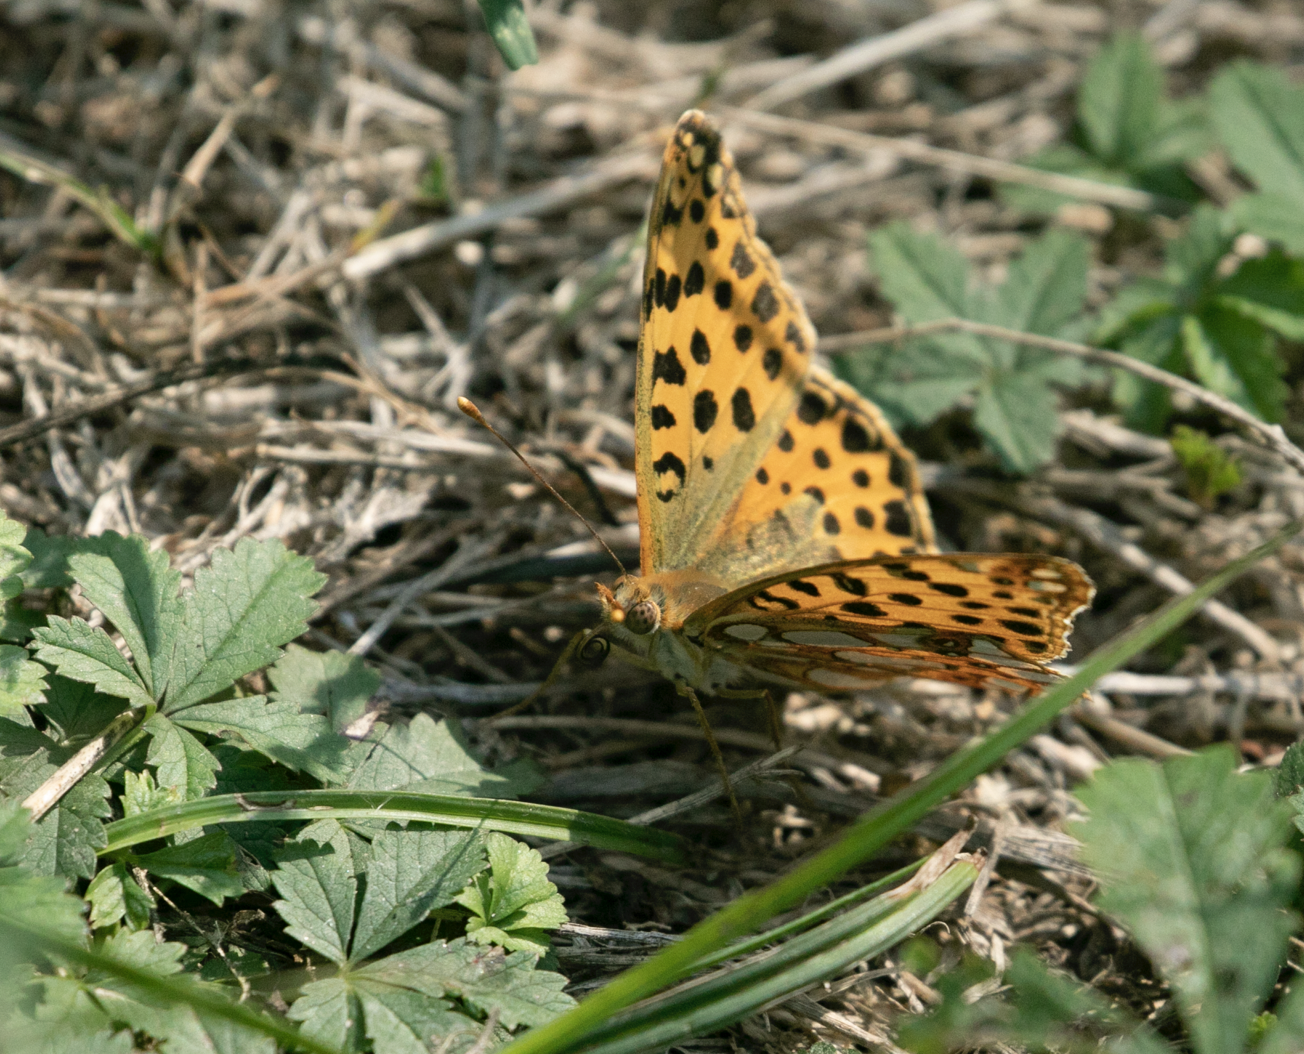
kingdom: Animalia
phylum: Arthropoda
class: Insecta
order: Lepidoptera
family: Nymphalidae
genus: Issoria
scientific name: Issoria lathonia
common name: Queen of spain fritillary
